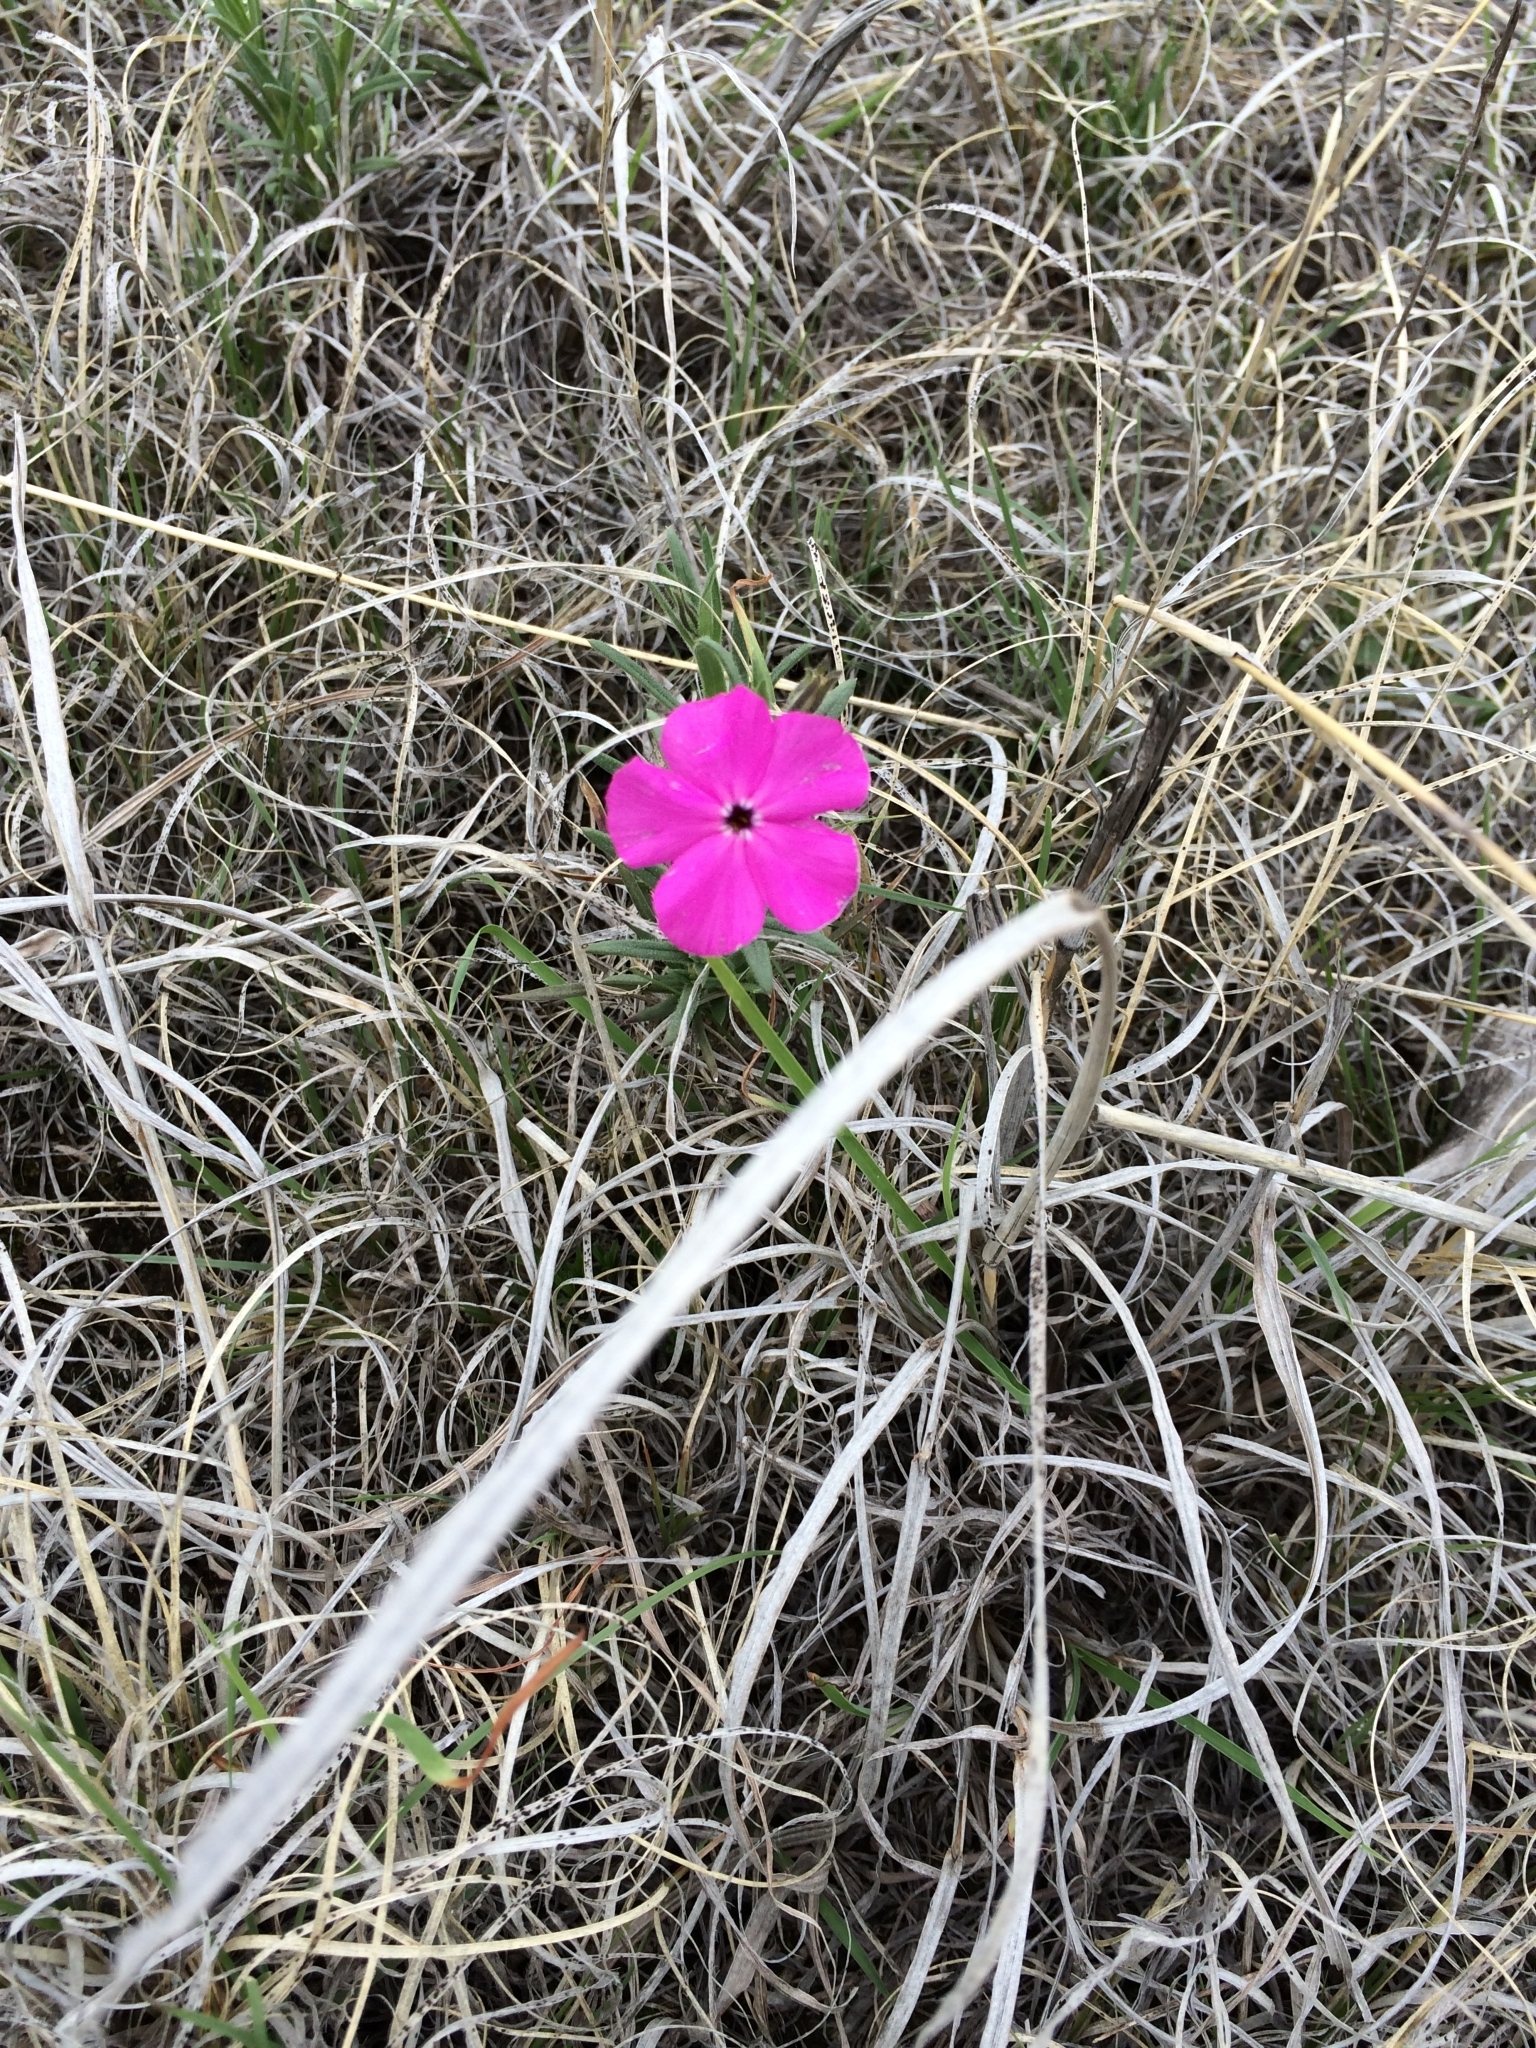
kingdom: Plantae
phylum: Tracheophyta
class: Magnoliopsida
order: Ericales
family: Polemoniaceae
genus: Phlox
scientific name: Phlox nana
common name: Santa fe phlox
